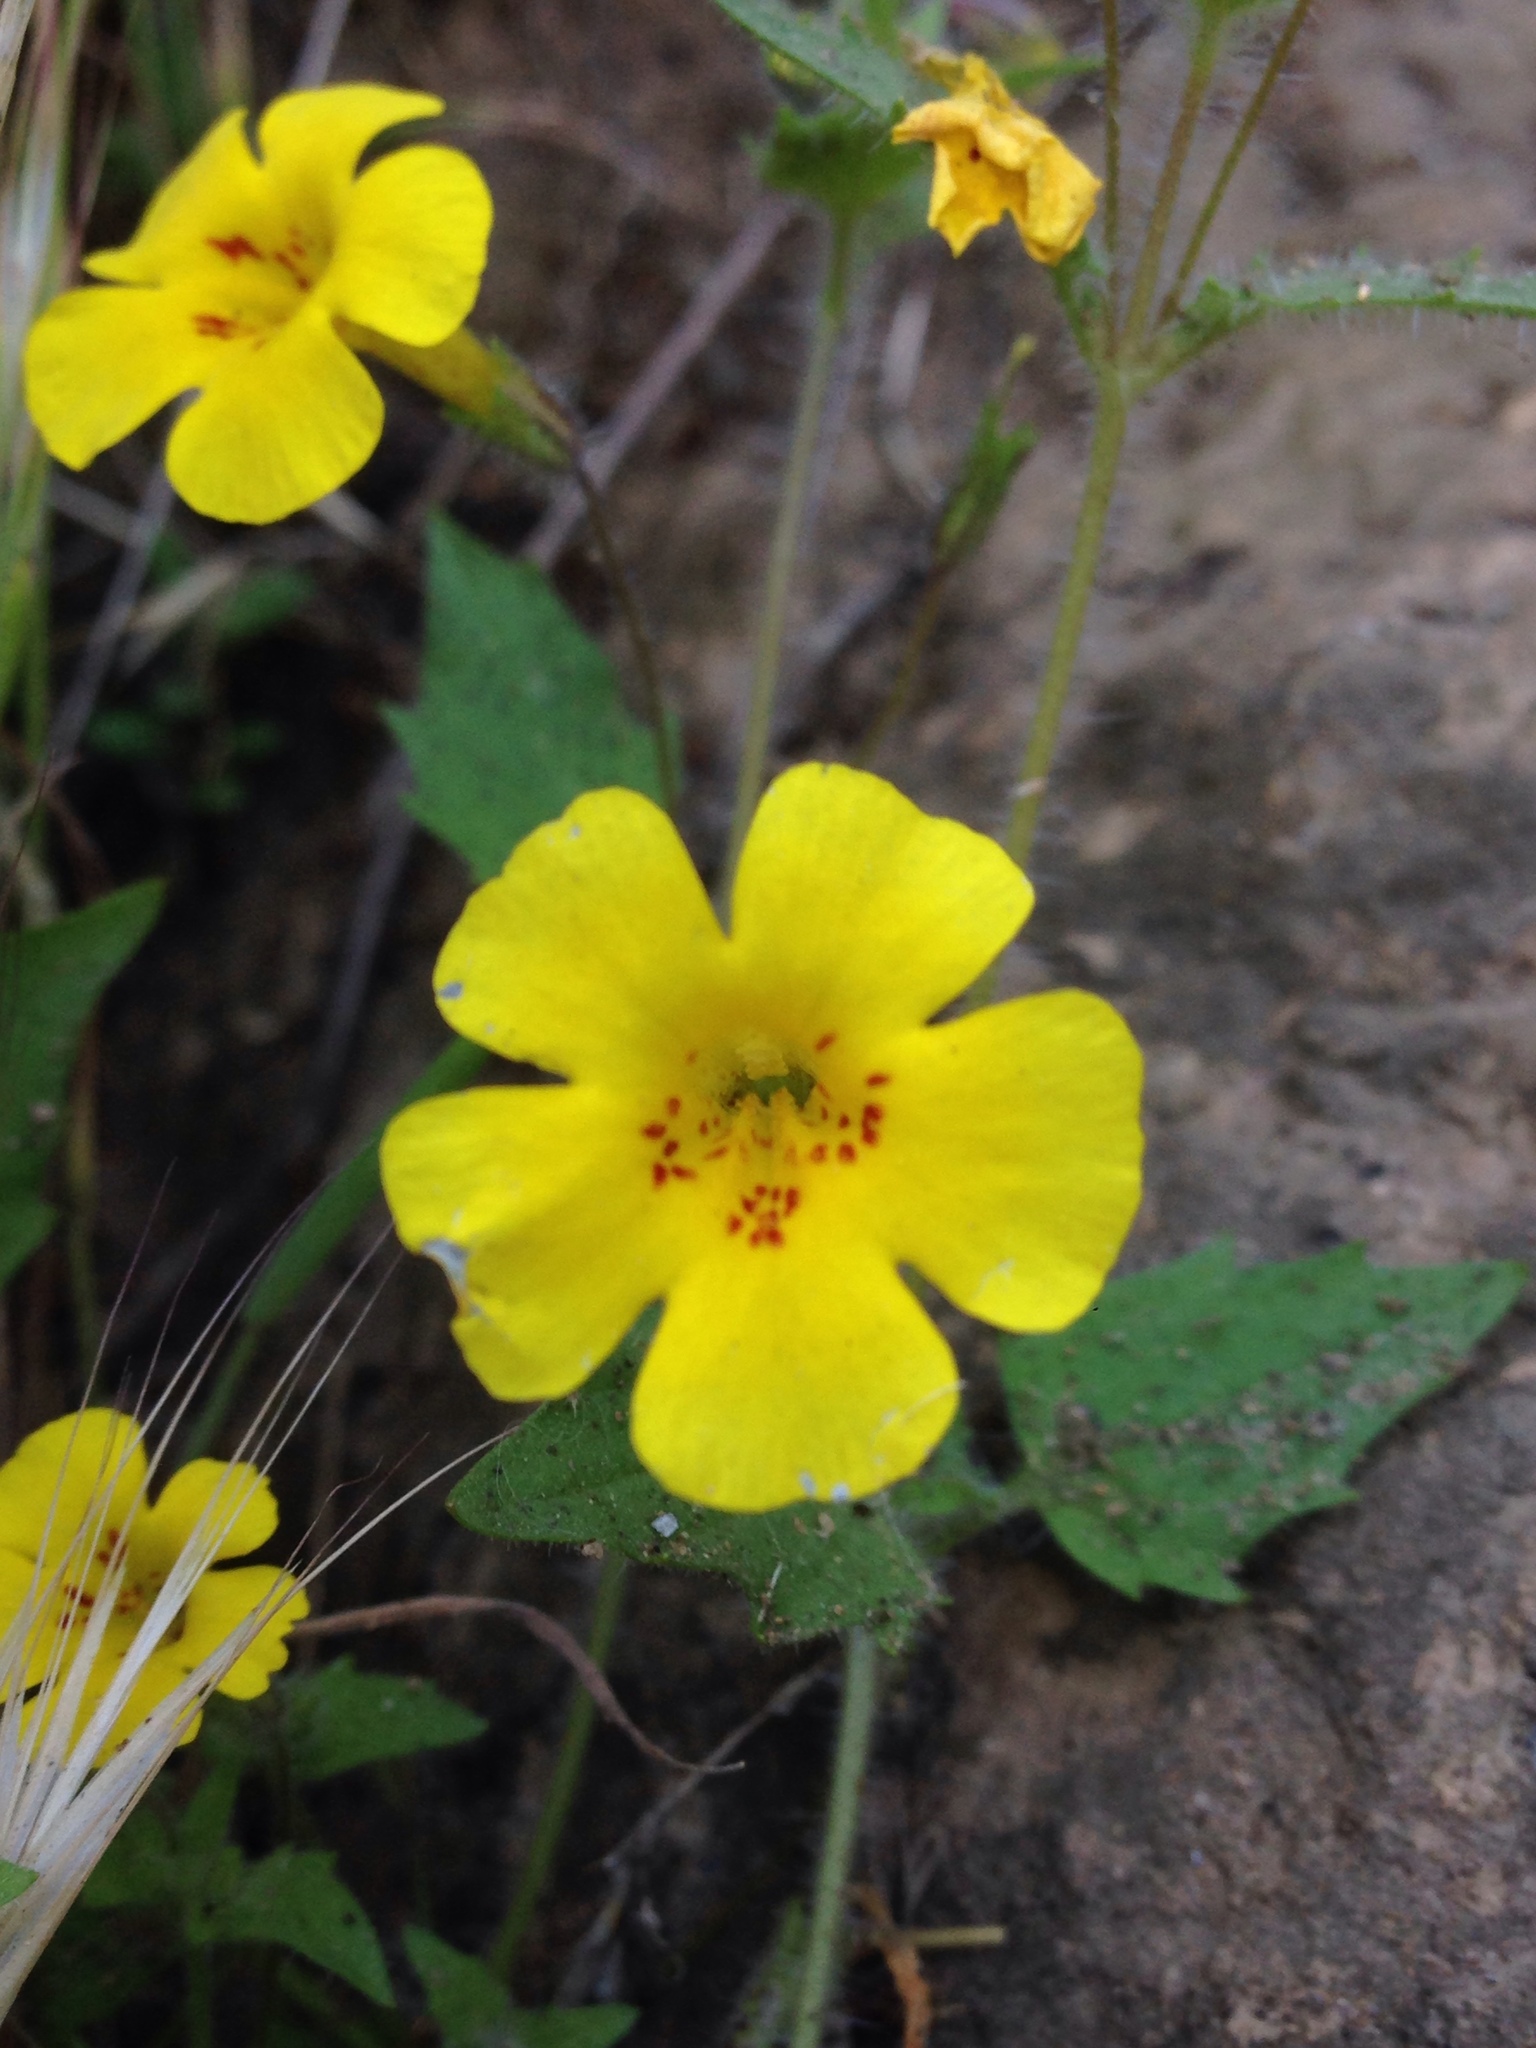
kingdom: Plantae
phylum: Tracheophyta
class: Magnoliopsida
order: Lamiales
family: Phrymaceae
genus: Erythranthe
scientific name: Erythranthe geniculata
